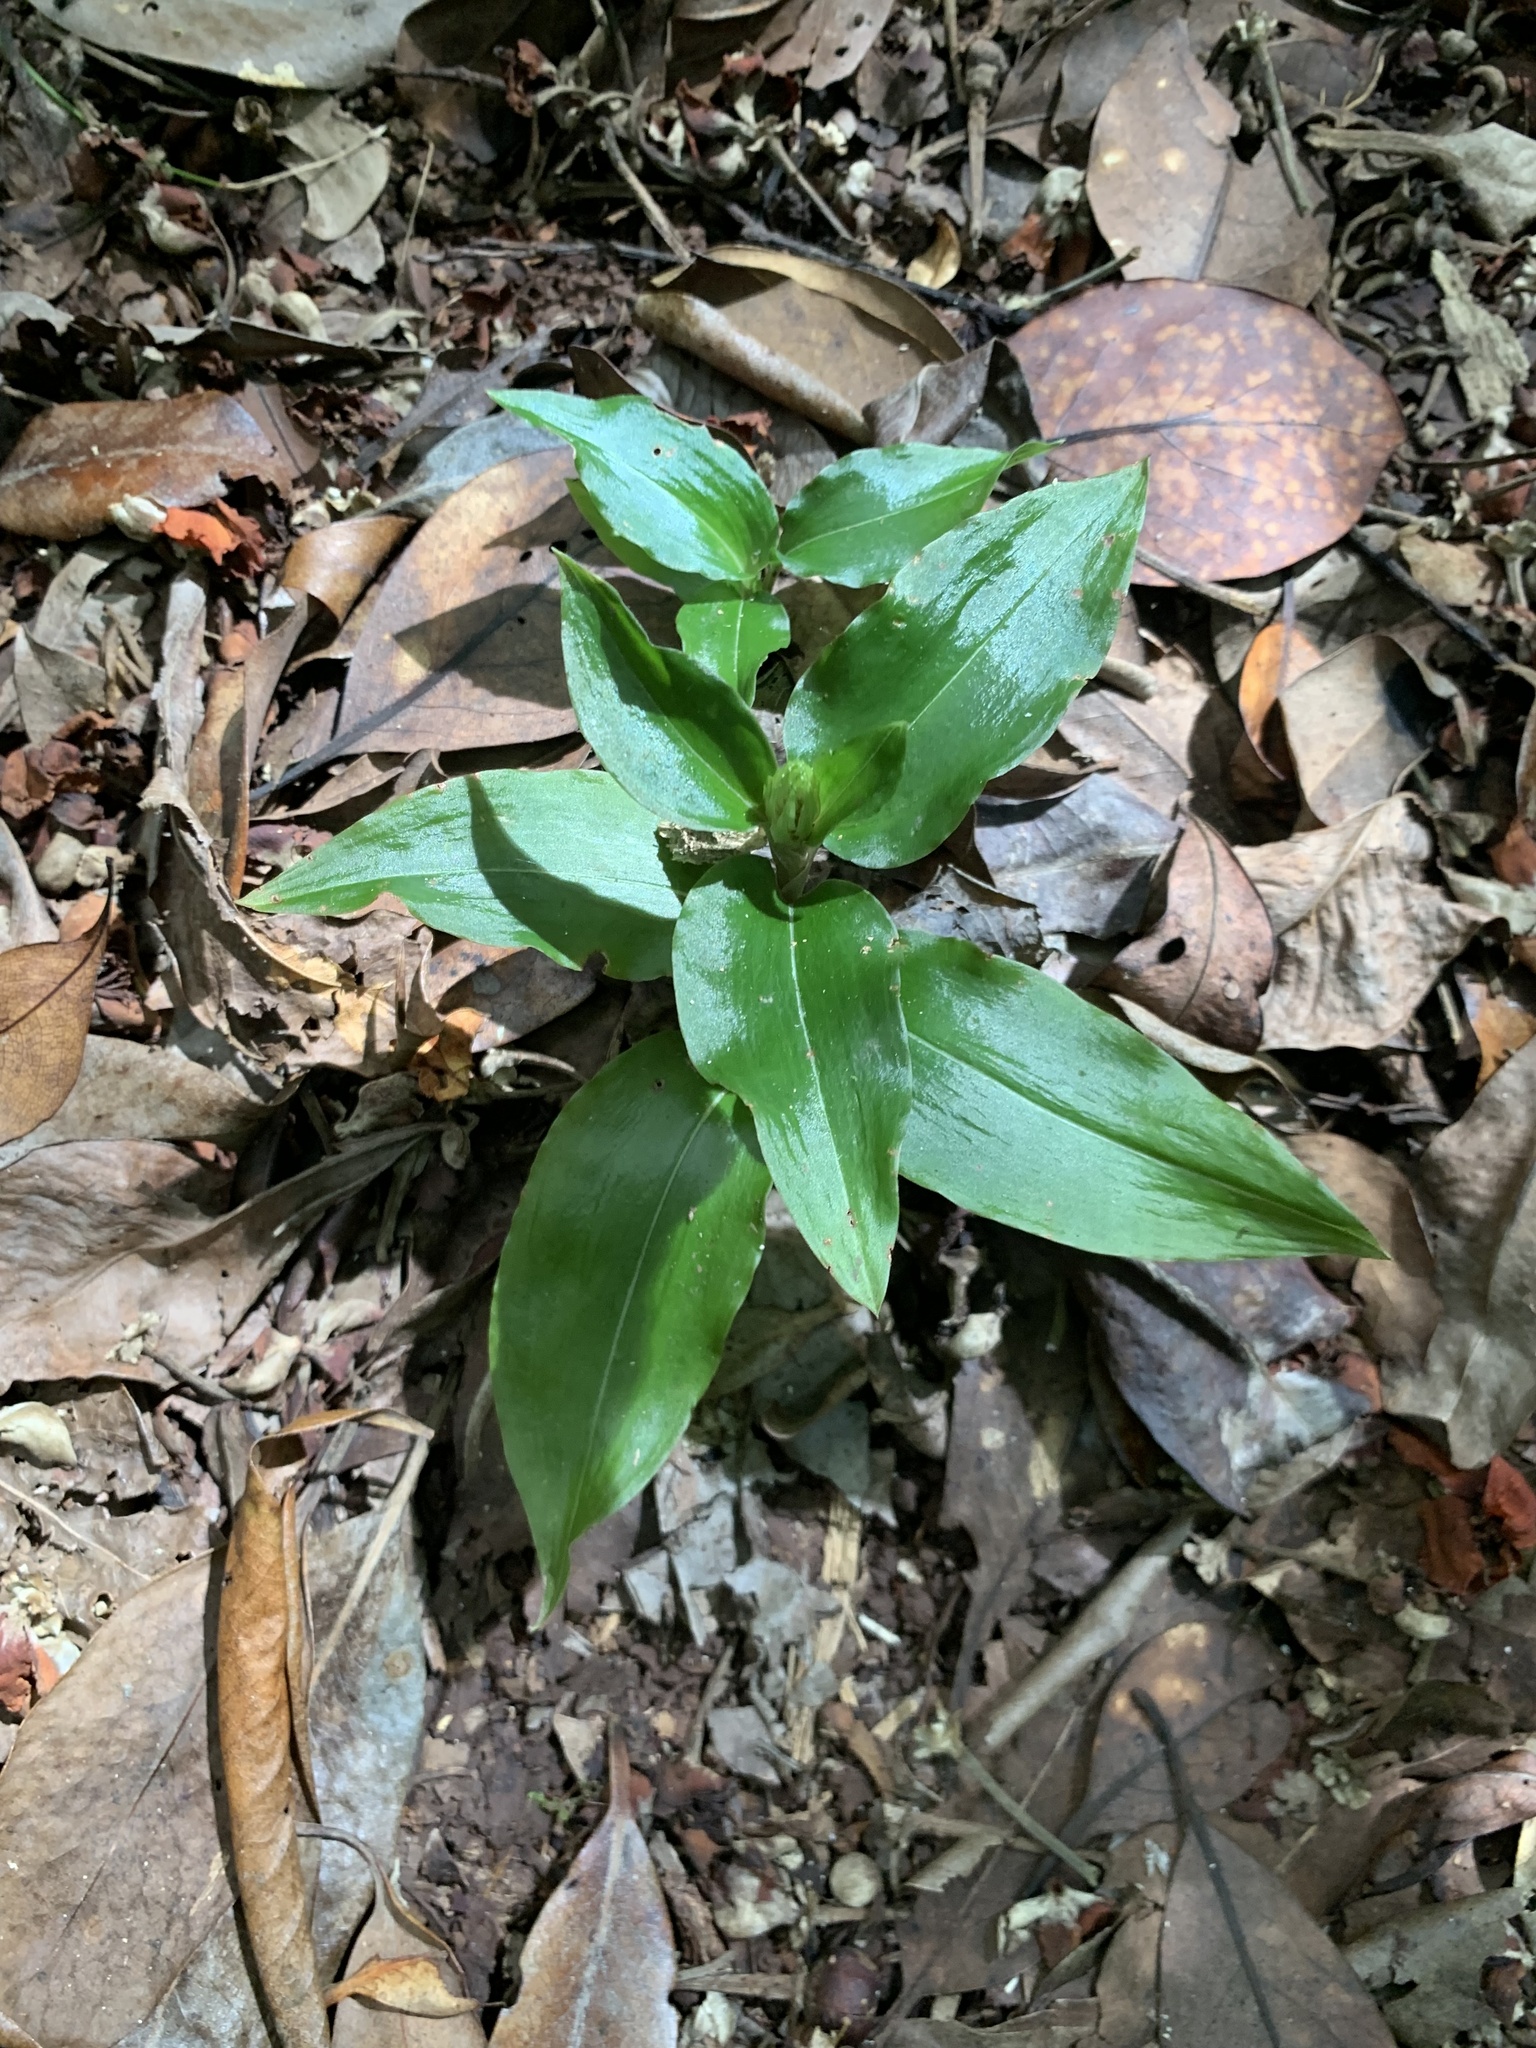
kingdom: Plantae
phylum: Tracheophyta
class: Liliopsida
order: Asparagales
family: Orchidaceae
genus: Goodyera
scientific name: Goodyera boninensis
